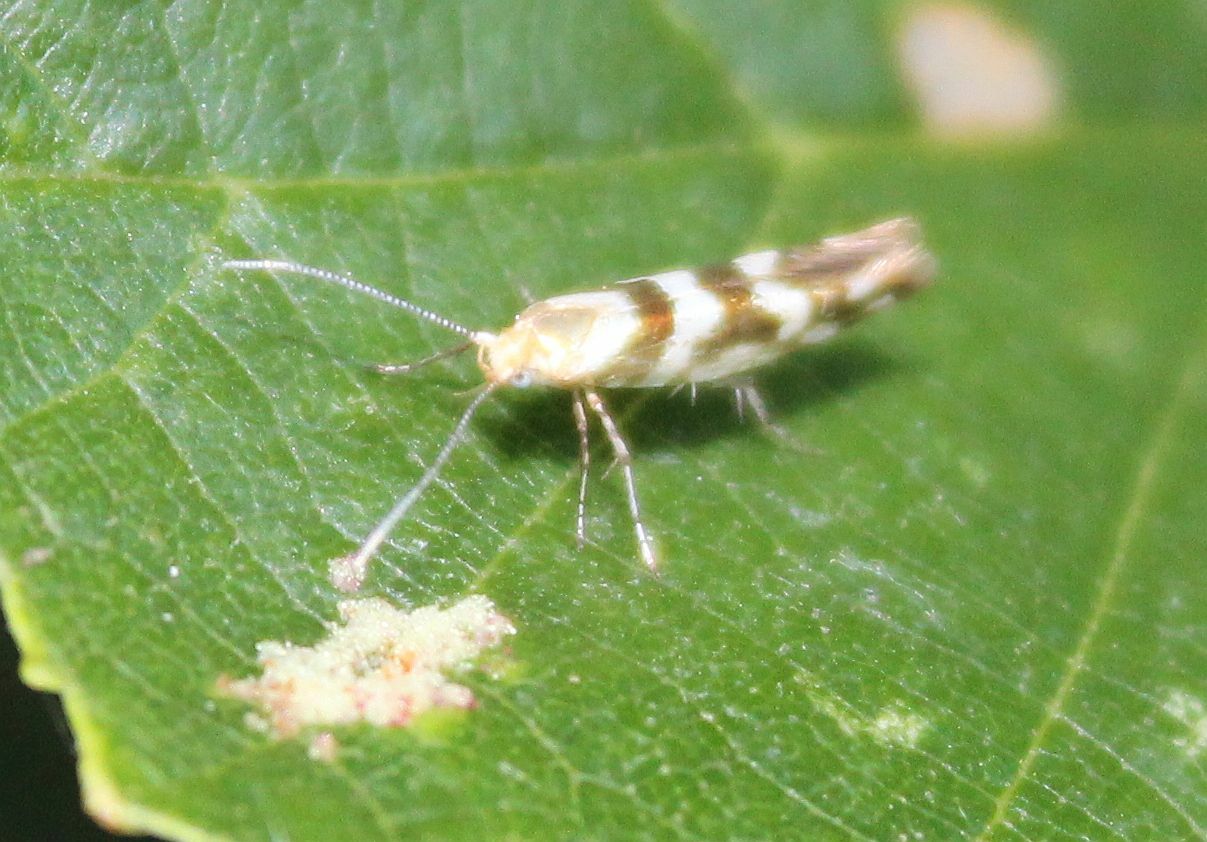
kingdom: Animalia
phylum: Arthropoda
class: Insecta
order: Lepidoptera
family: Argyresthiidae
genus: Argyresthia
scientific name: Argyresthia goedartella
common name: Golden argent
